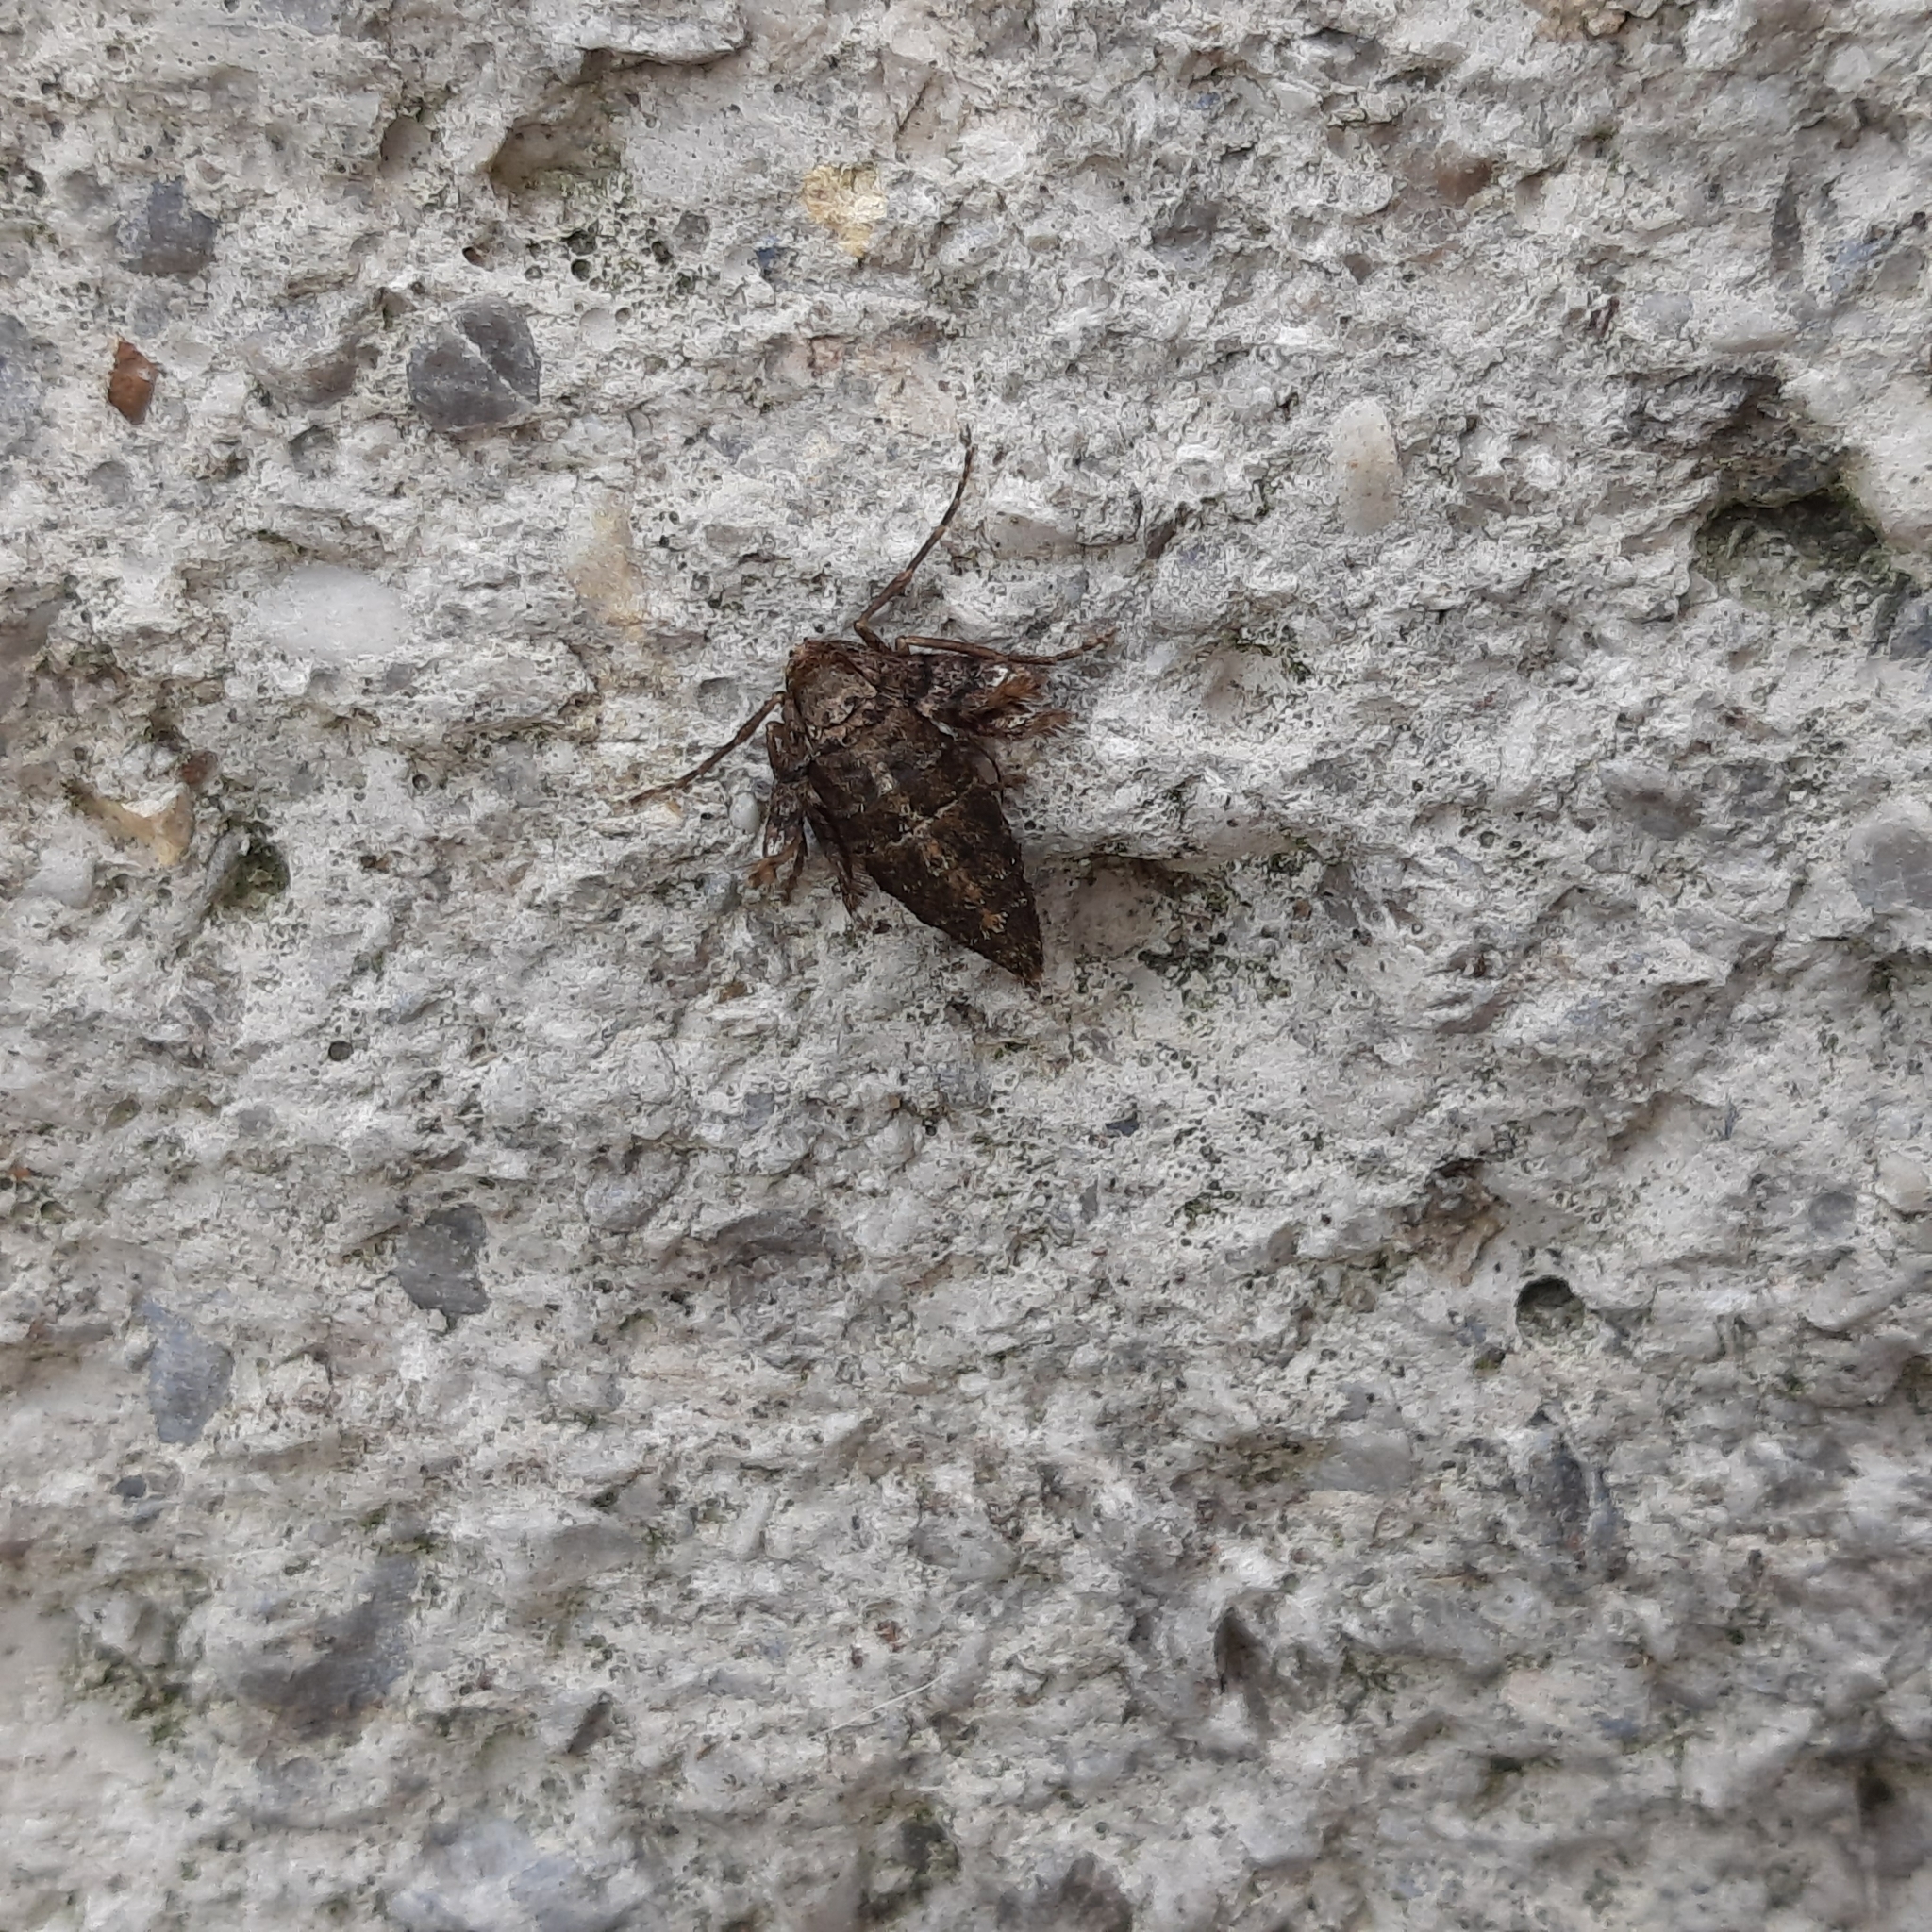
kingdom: Animalia
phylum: Arthropoda
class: Insecta
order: Lepidoptera
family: Geometridae
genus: Agriopis
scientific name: Agriopis marginaria
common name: Dotted border
